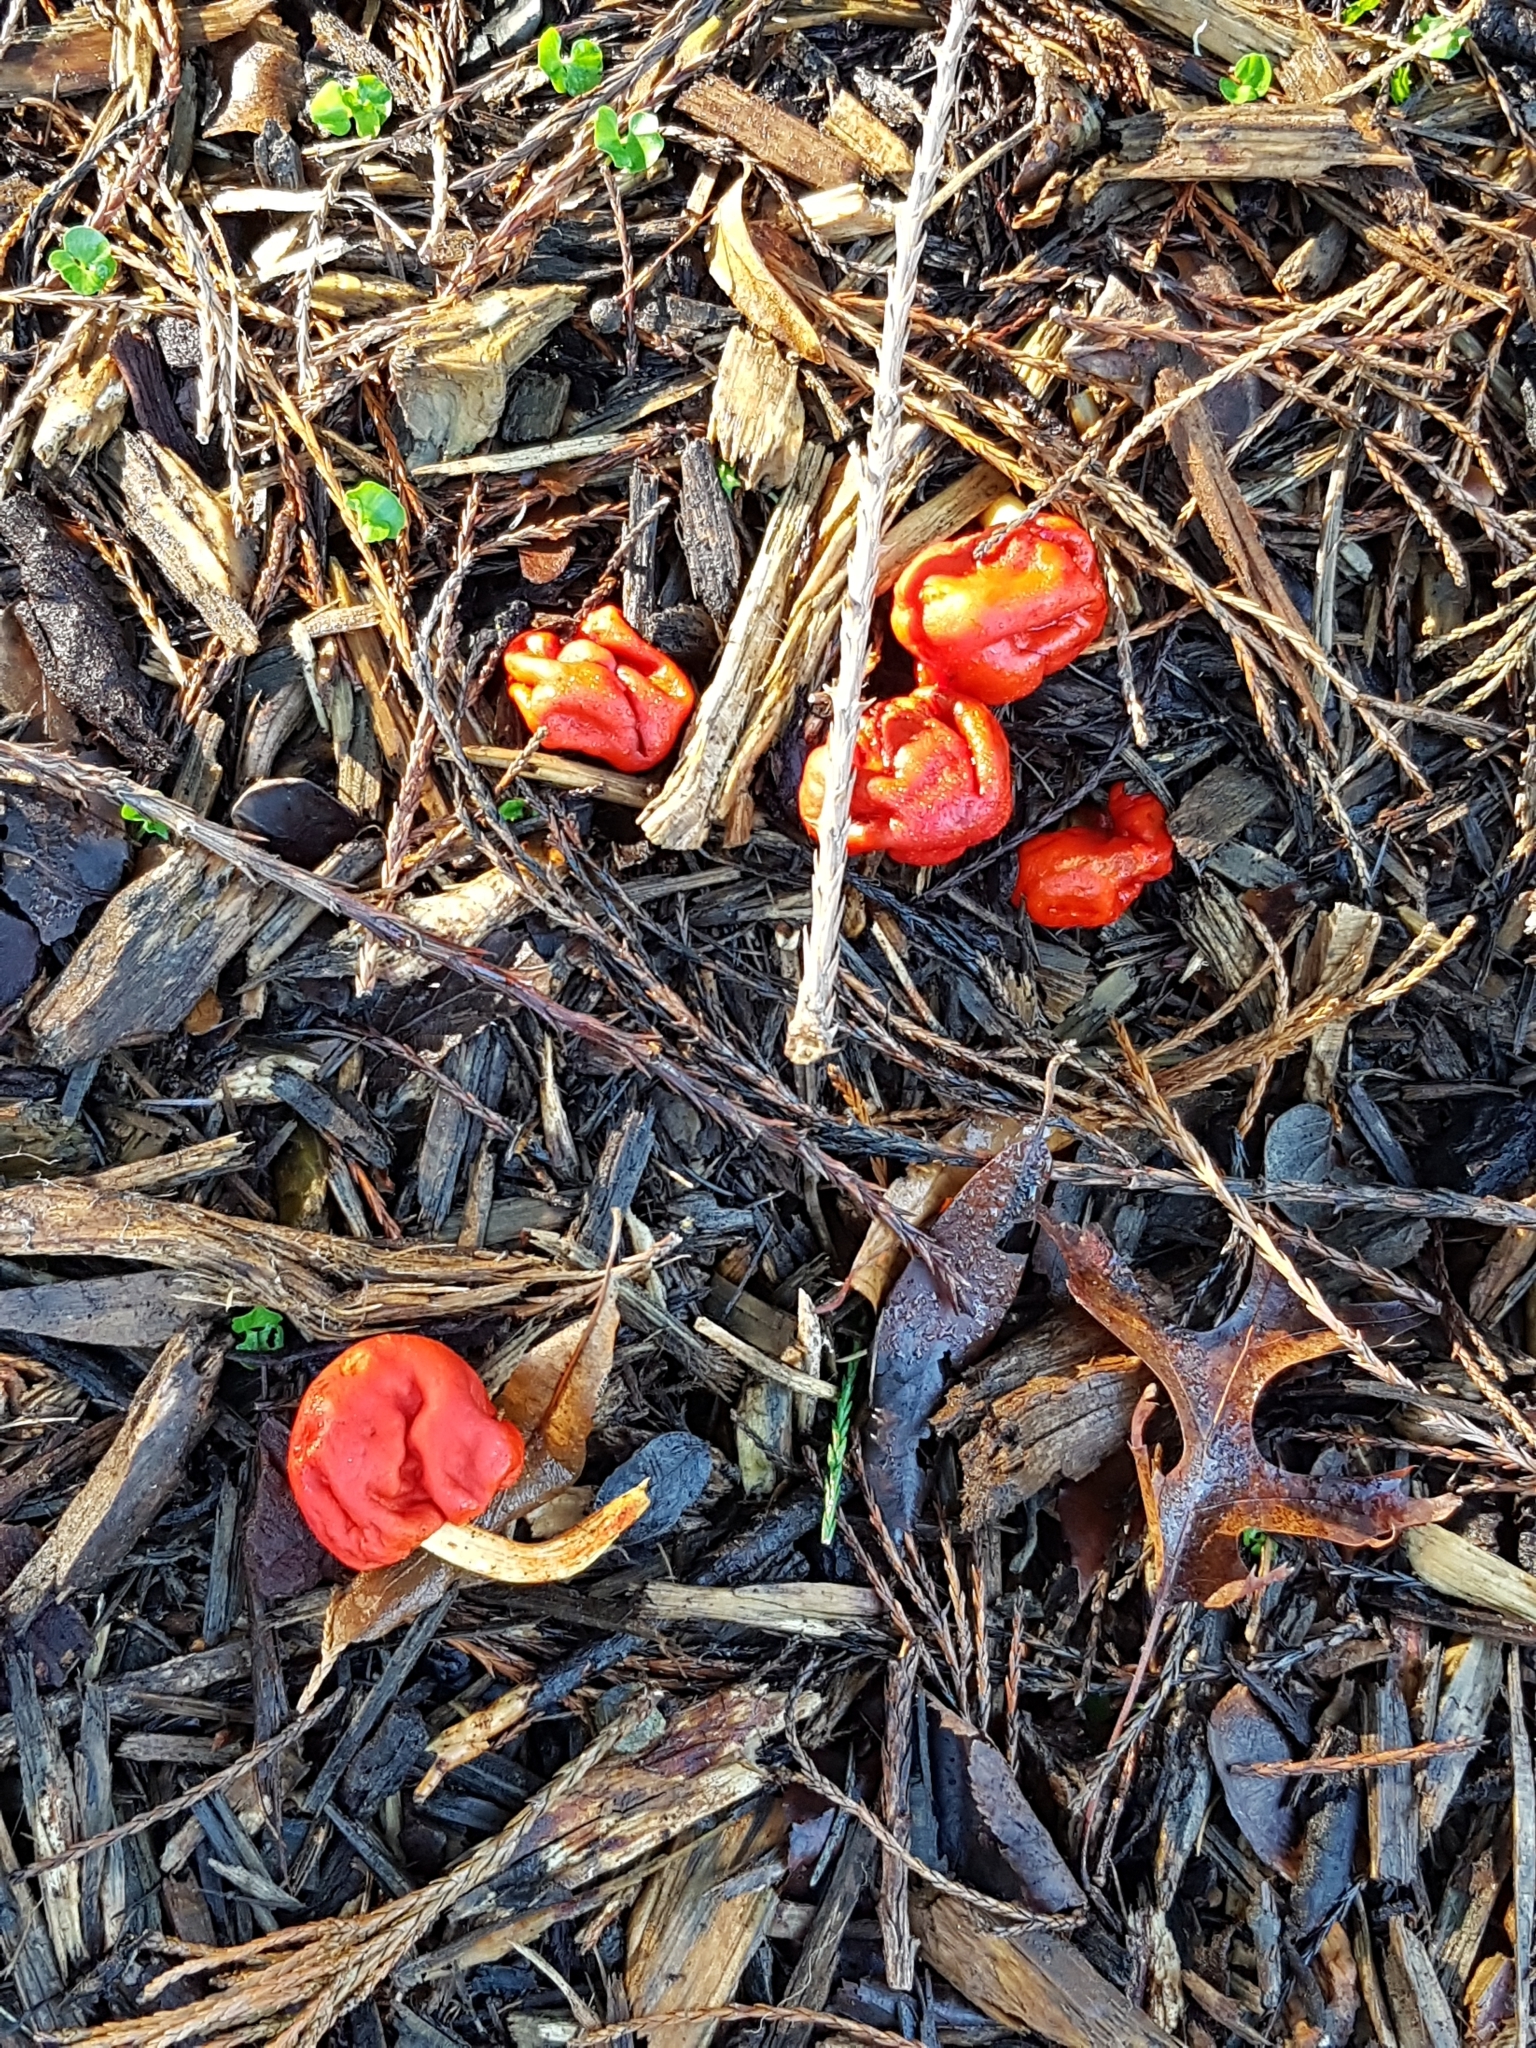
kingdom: Fungi
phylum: Basidiomycota
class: Agaricomycetes
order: Agaricales
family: Strophariaceae
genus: Leratiomyces
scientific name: Leratiomyces erythrocephalus
